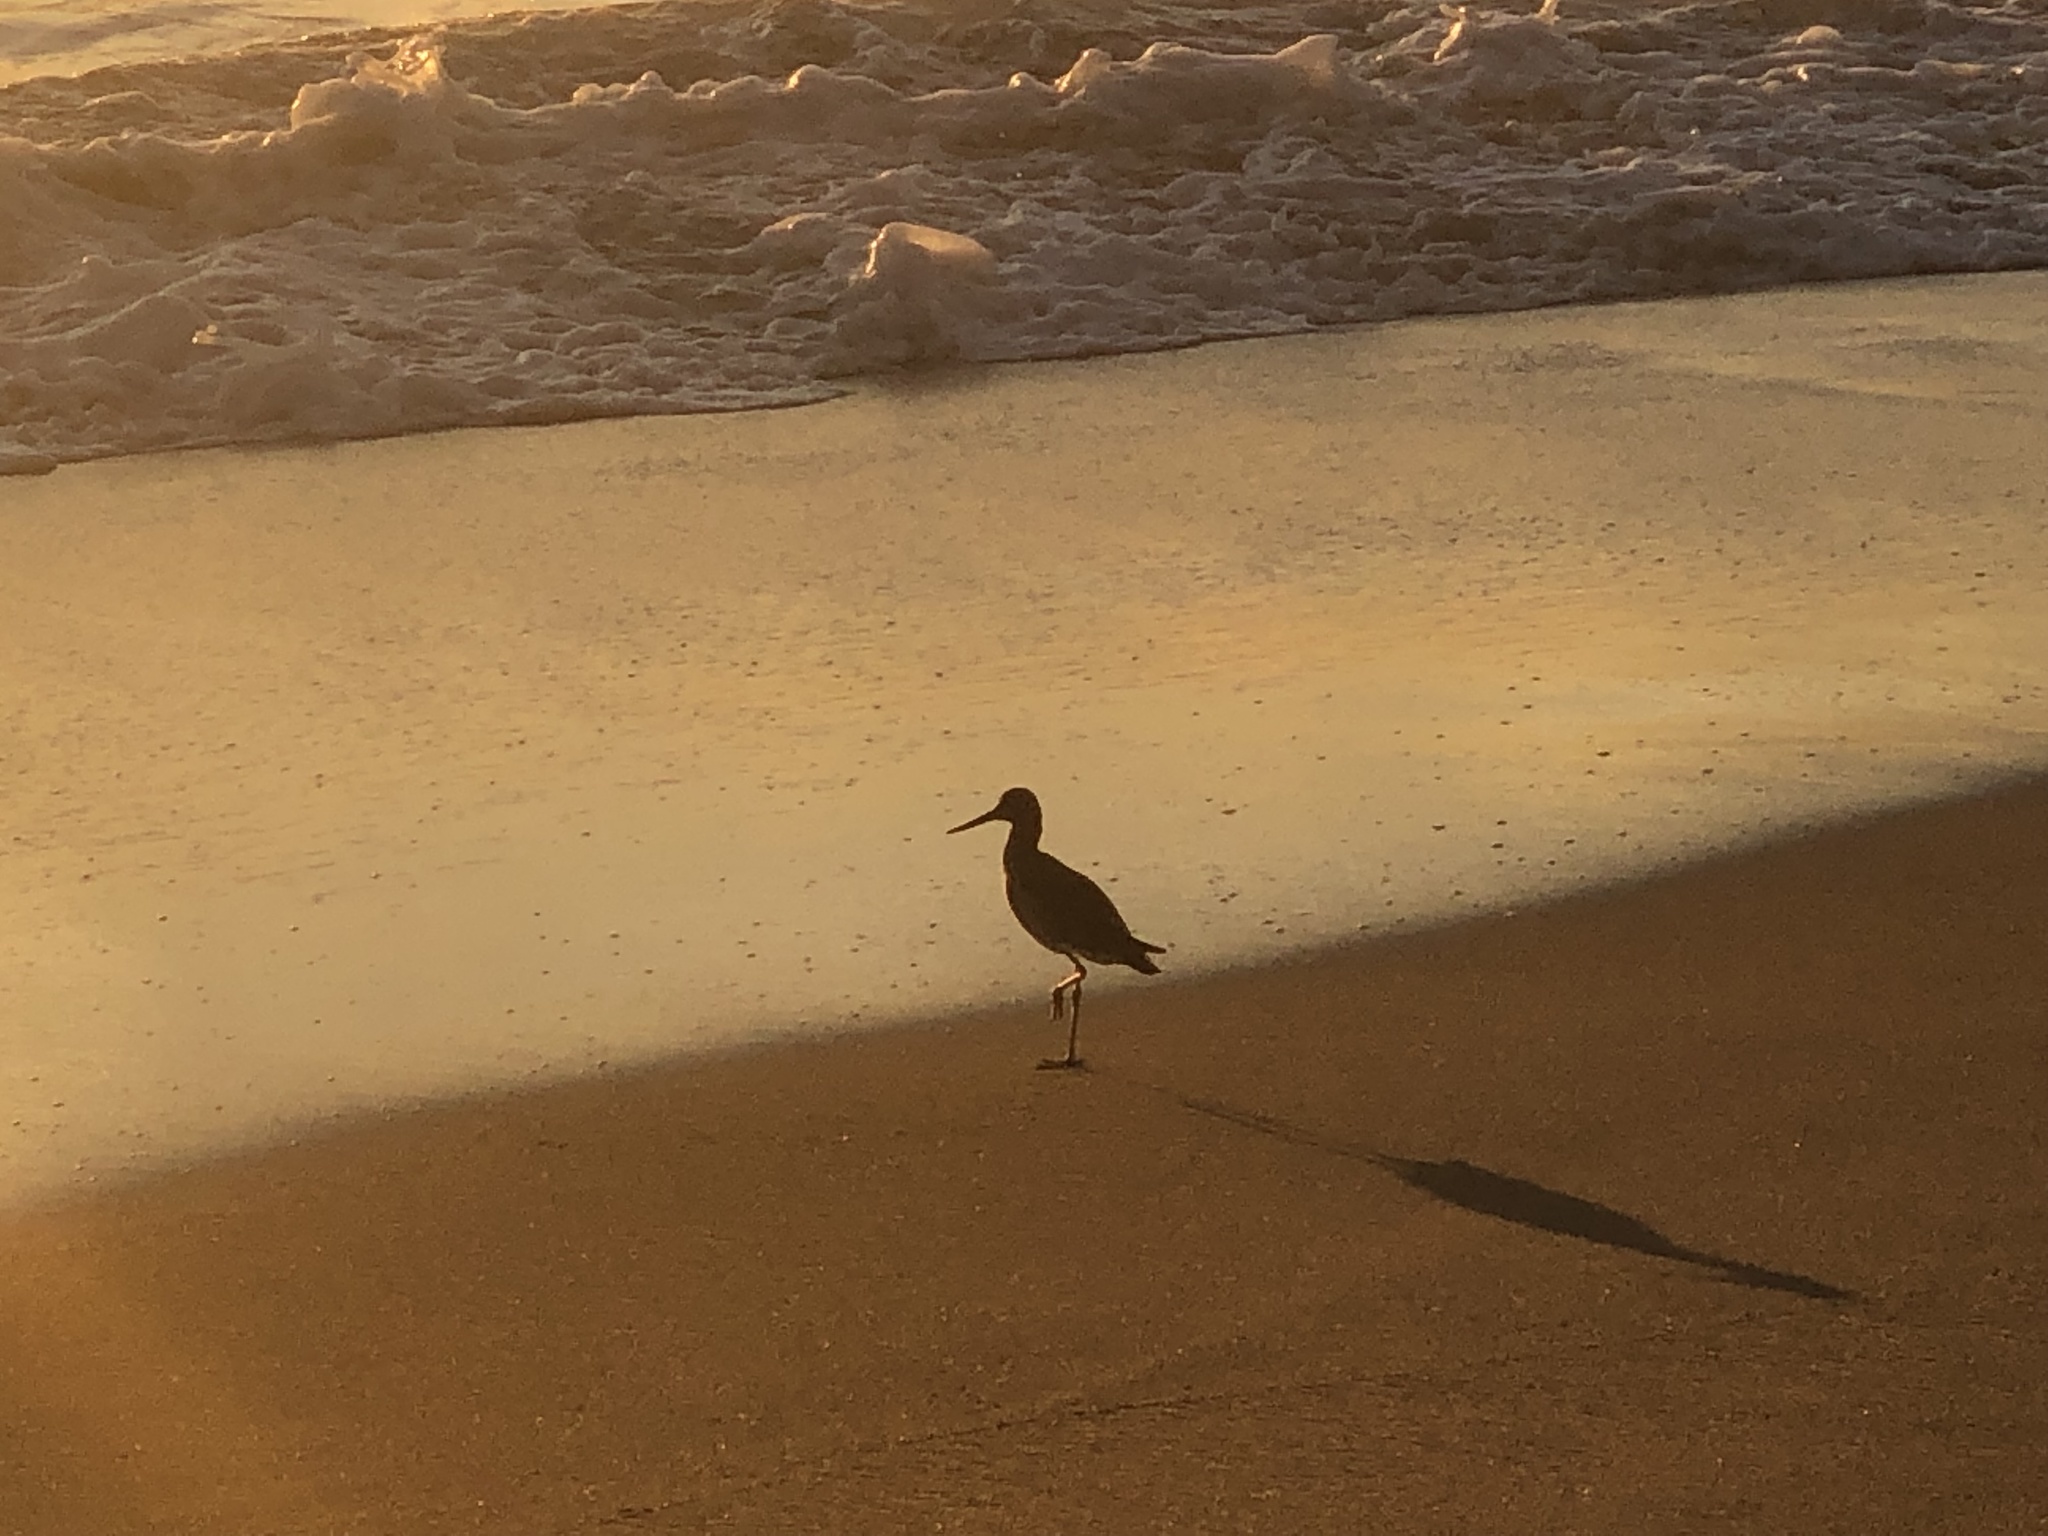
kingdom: Animalia
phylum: Chordata
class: Aves
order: Charadriiformes
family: Scolopacidae
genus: Tringa
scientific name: Tringa semipalmata
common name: Willet
